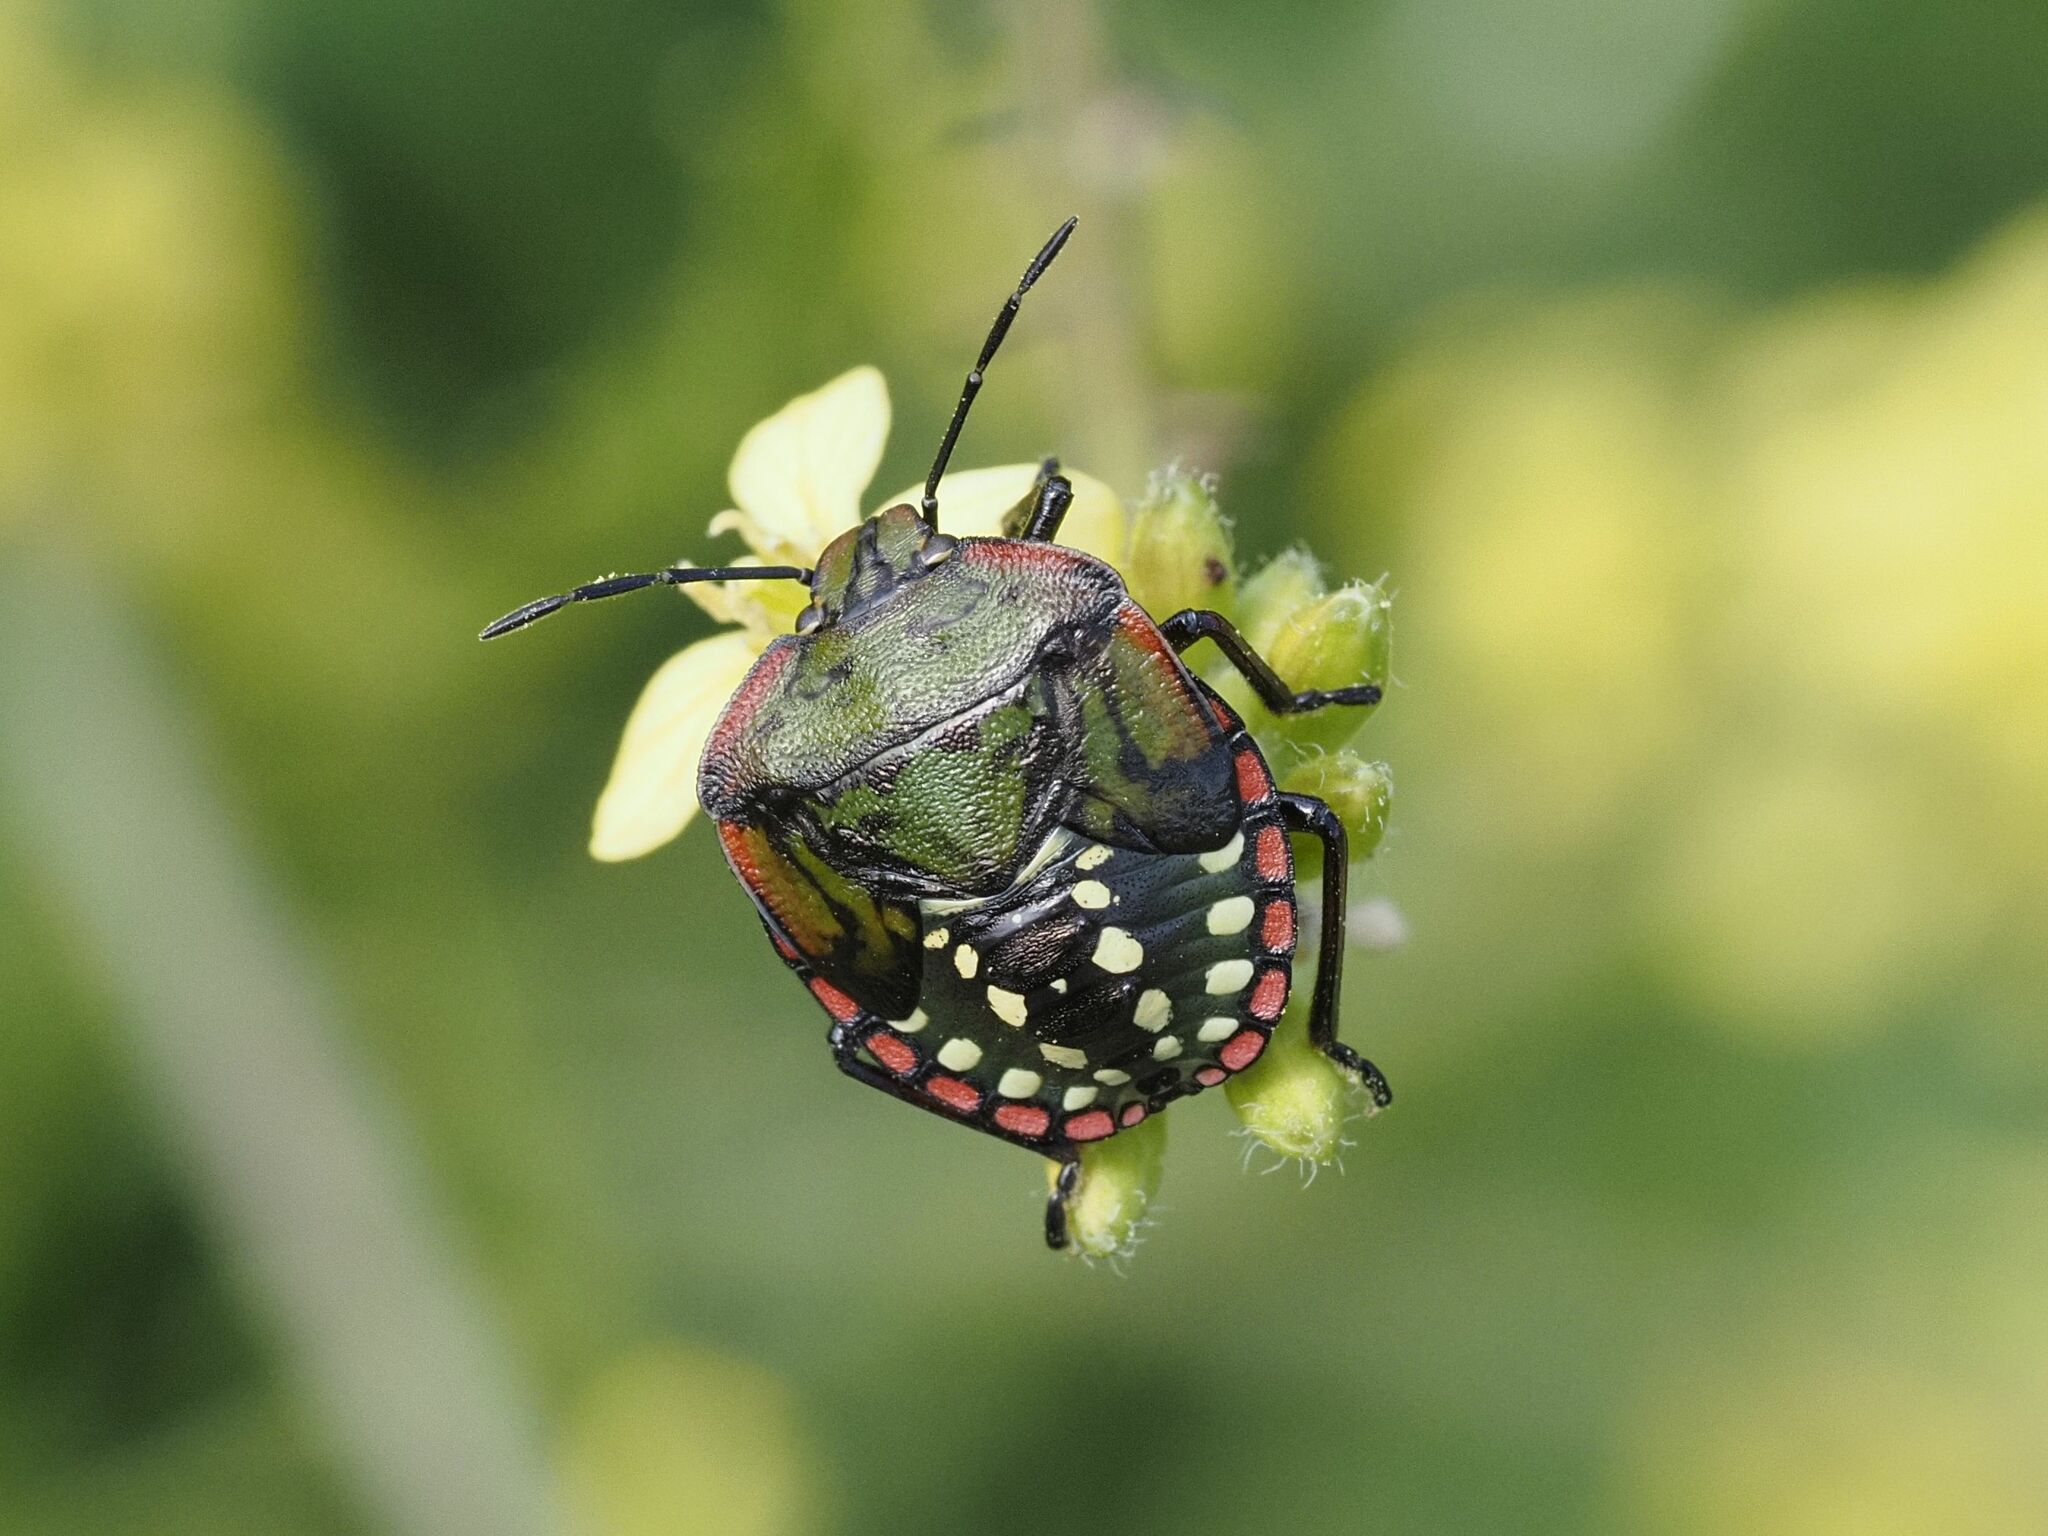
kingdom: Animalia
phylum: Arthropoda
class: Insecta
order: Hemiptera
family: Pentatomidae
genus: Nezara
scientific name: Nezara viridula
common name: Southern green stink bug
